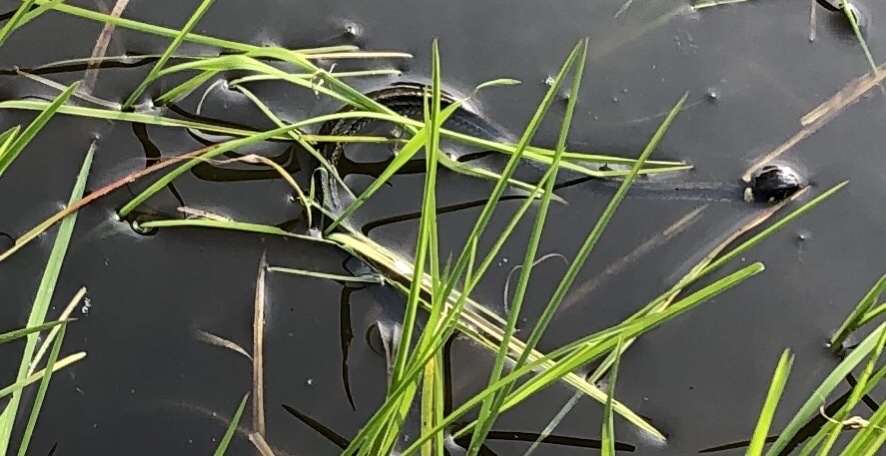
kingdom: Animalia
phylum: Chordata
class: Squamata
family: Colubridae
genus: Natrix
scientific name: Natrix natrix
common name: Grass snake
